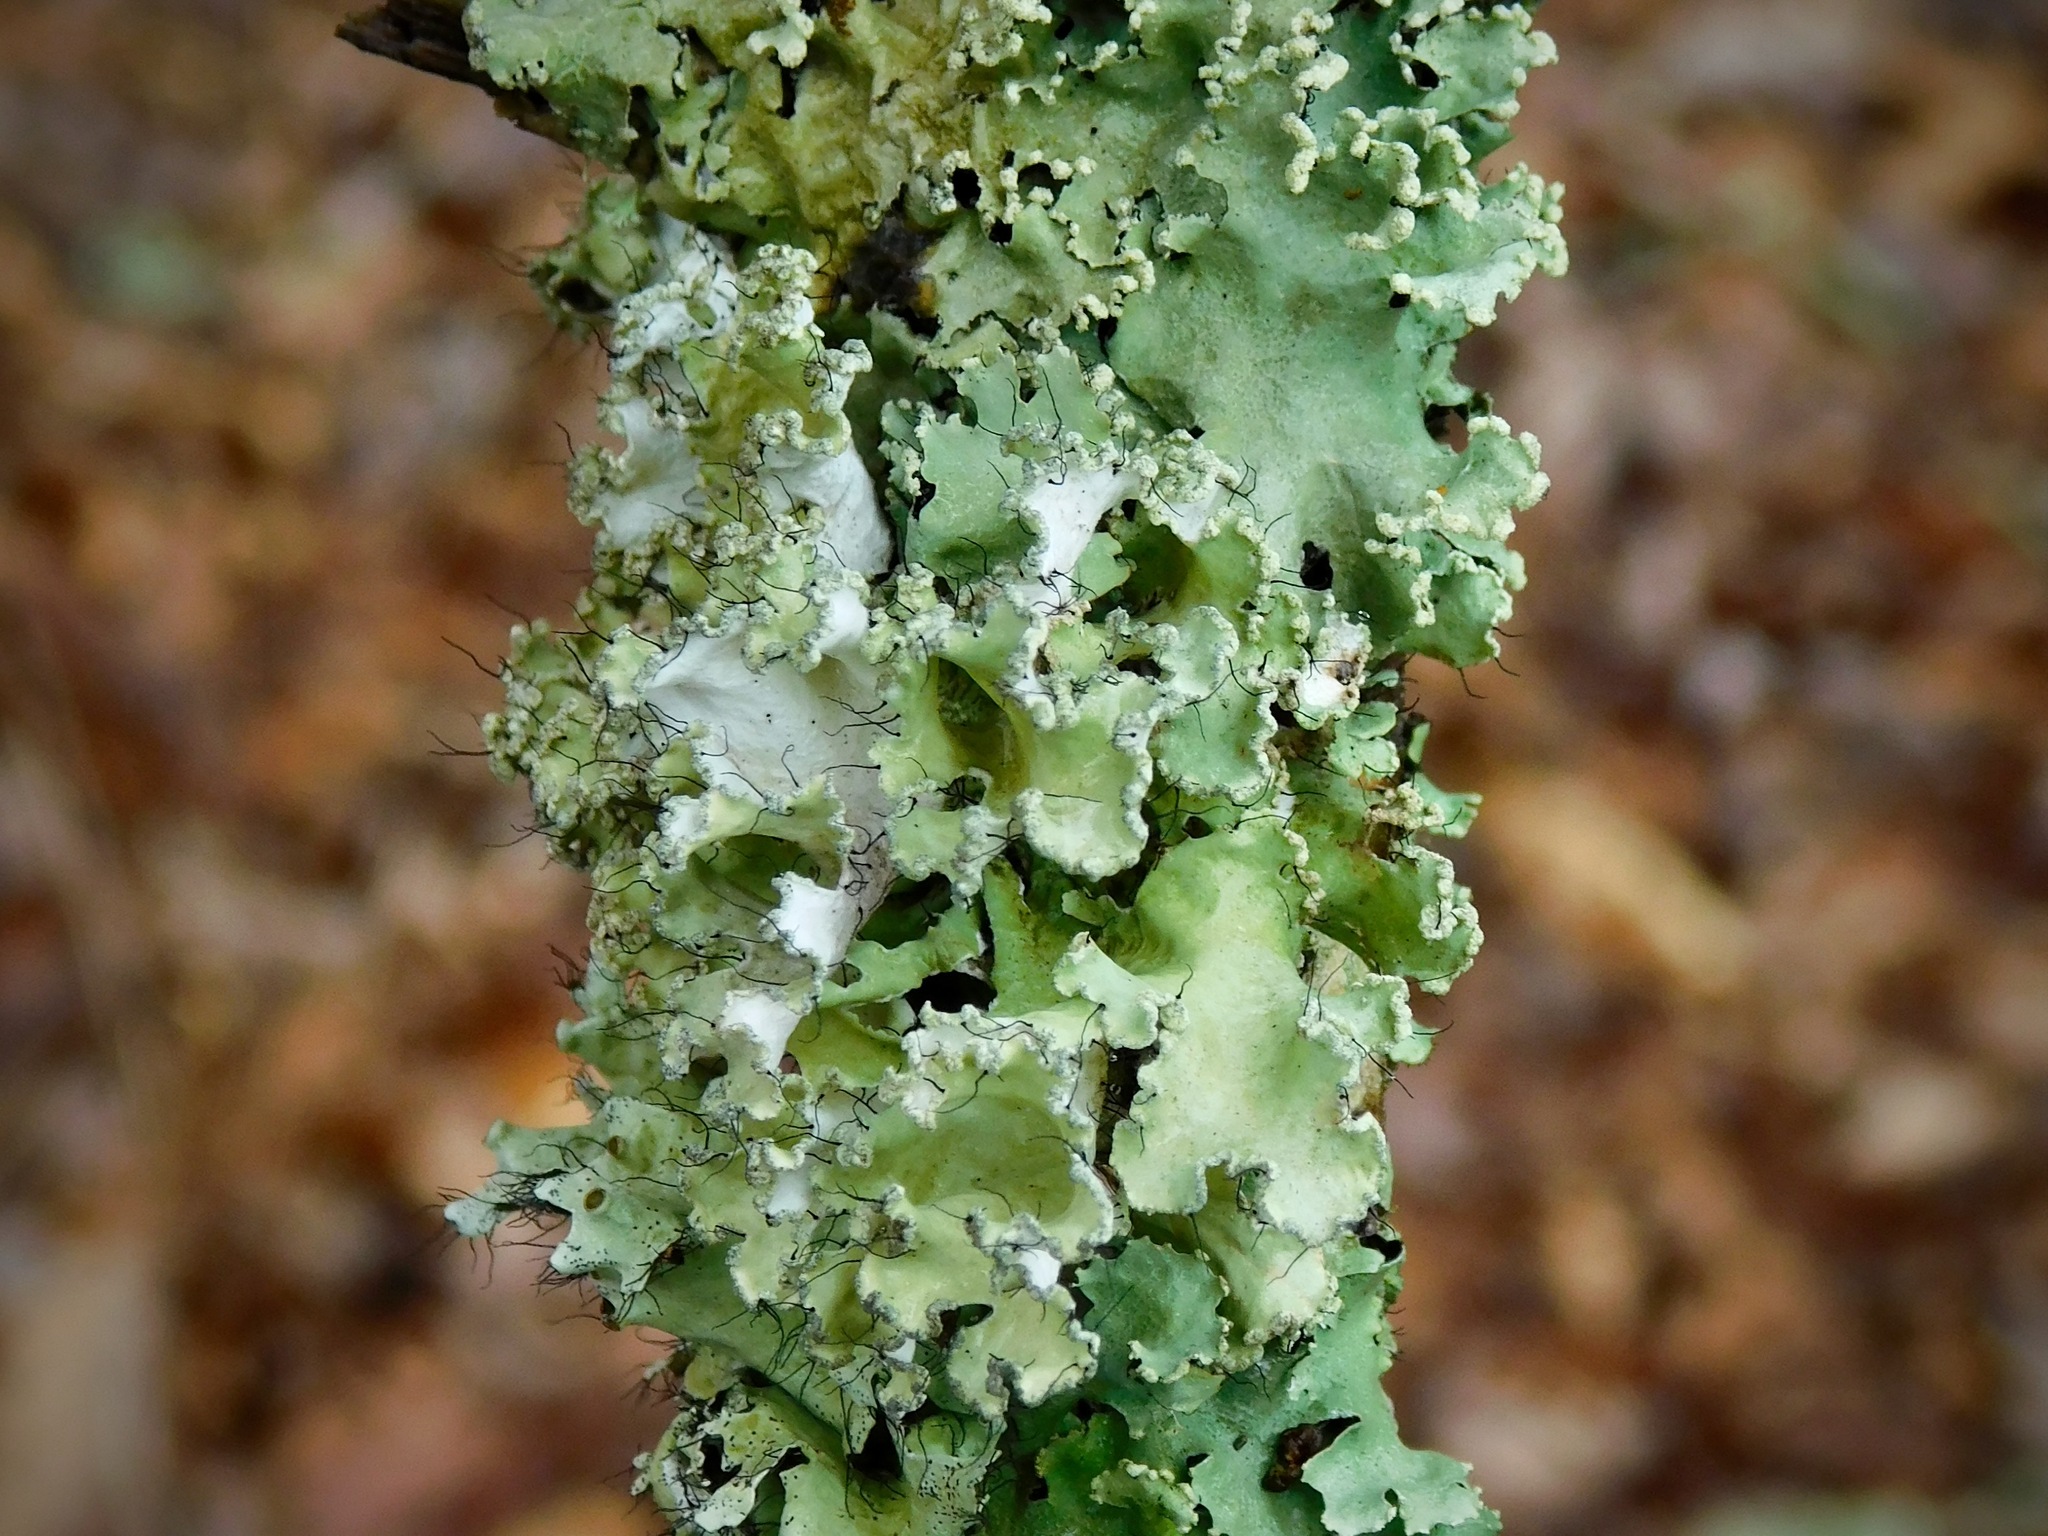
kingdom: Fungi
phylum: Ascomycota
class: Lecanoromycetes
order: Lecanorales
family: Parmeliaceae
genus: Parmotrema
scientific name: Parmotrema hypotropum
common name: Powdered ruffle lichen
